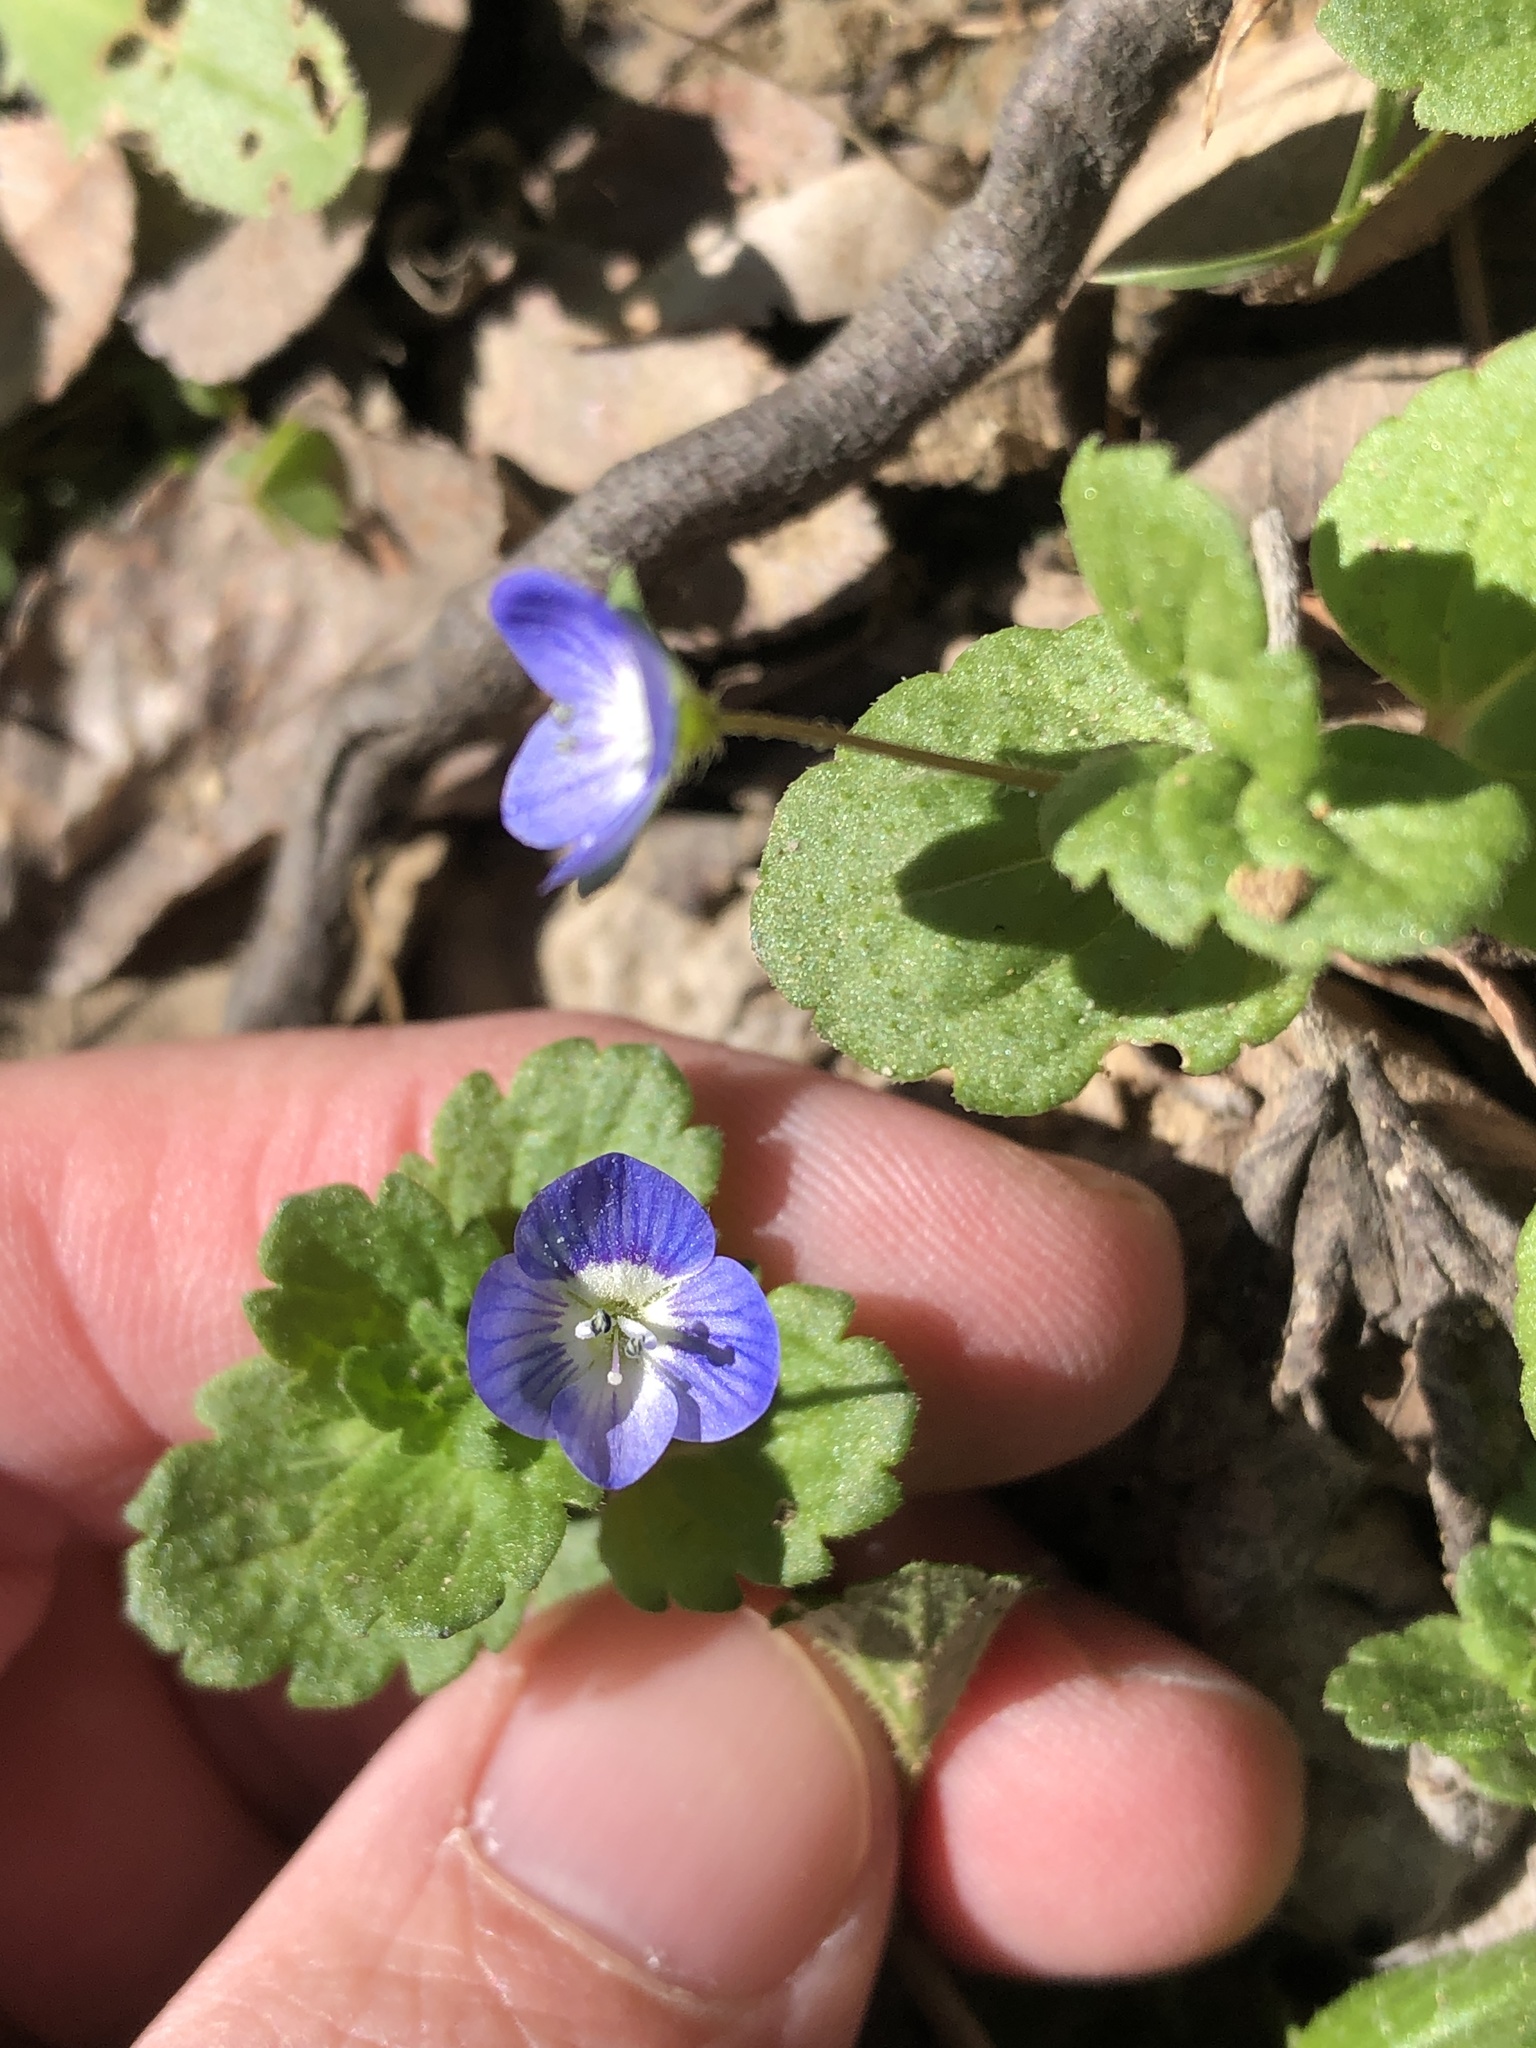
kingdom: Plantae
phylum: Tracheophyta
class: Magnoliopsida
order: Lamiales
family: Plantaginaceae
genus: Veronica
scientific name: Veronica persica
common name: Common field-speedwell
